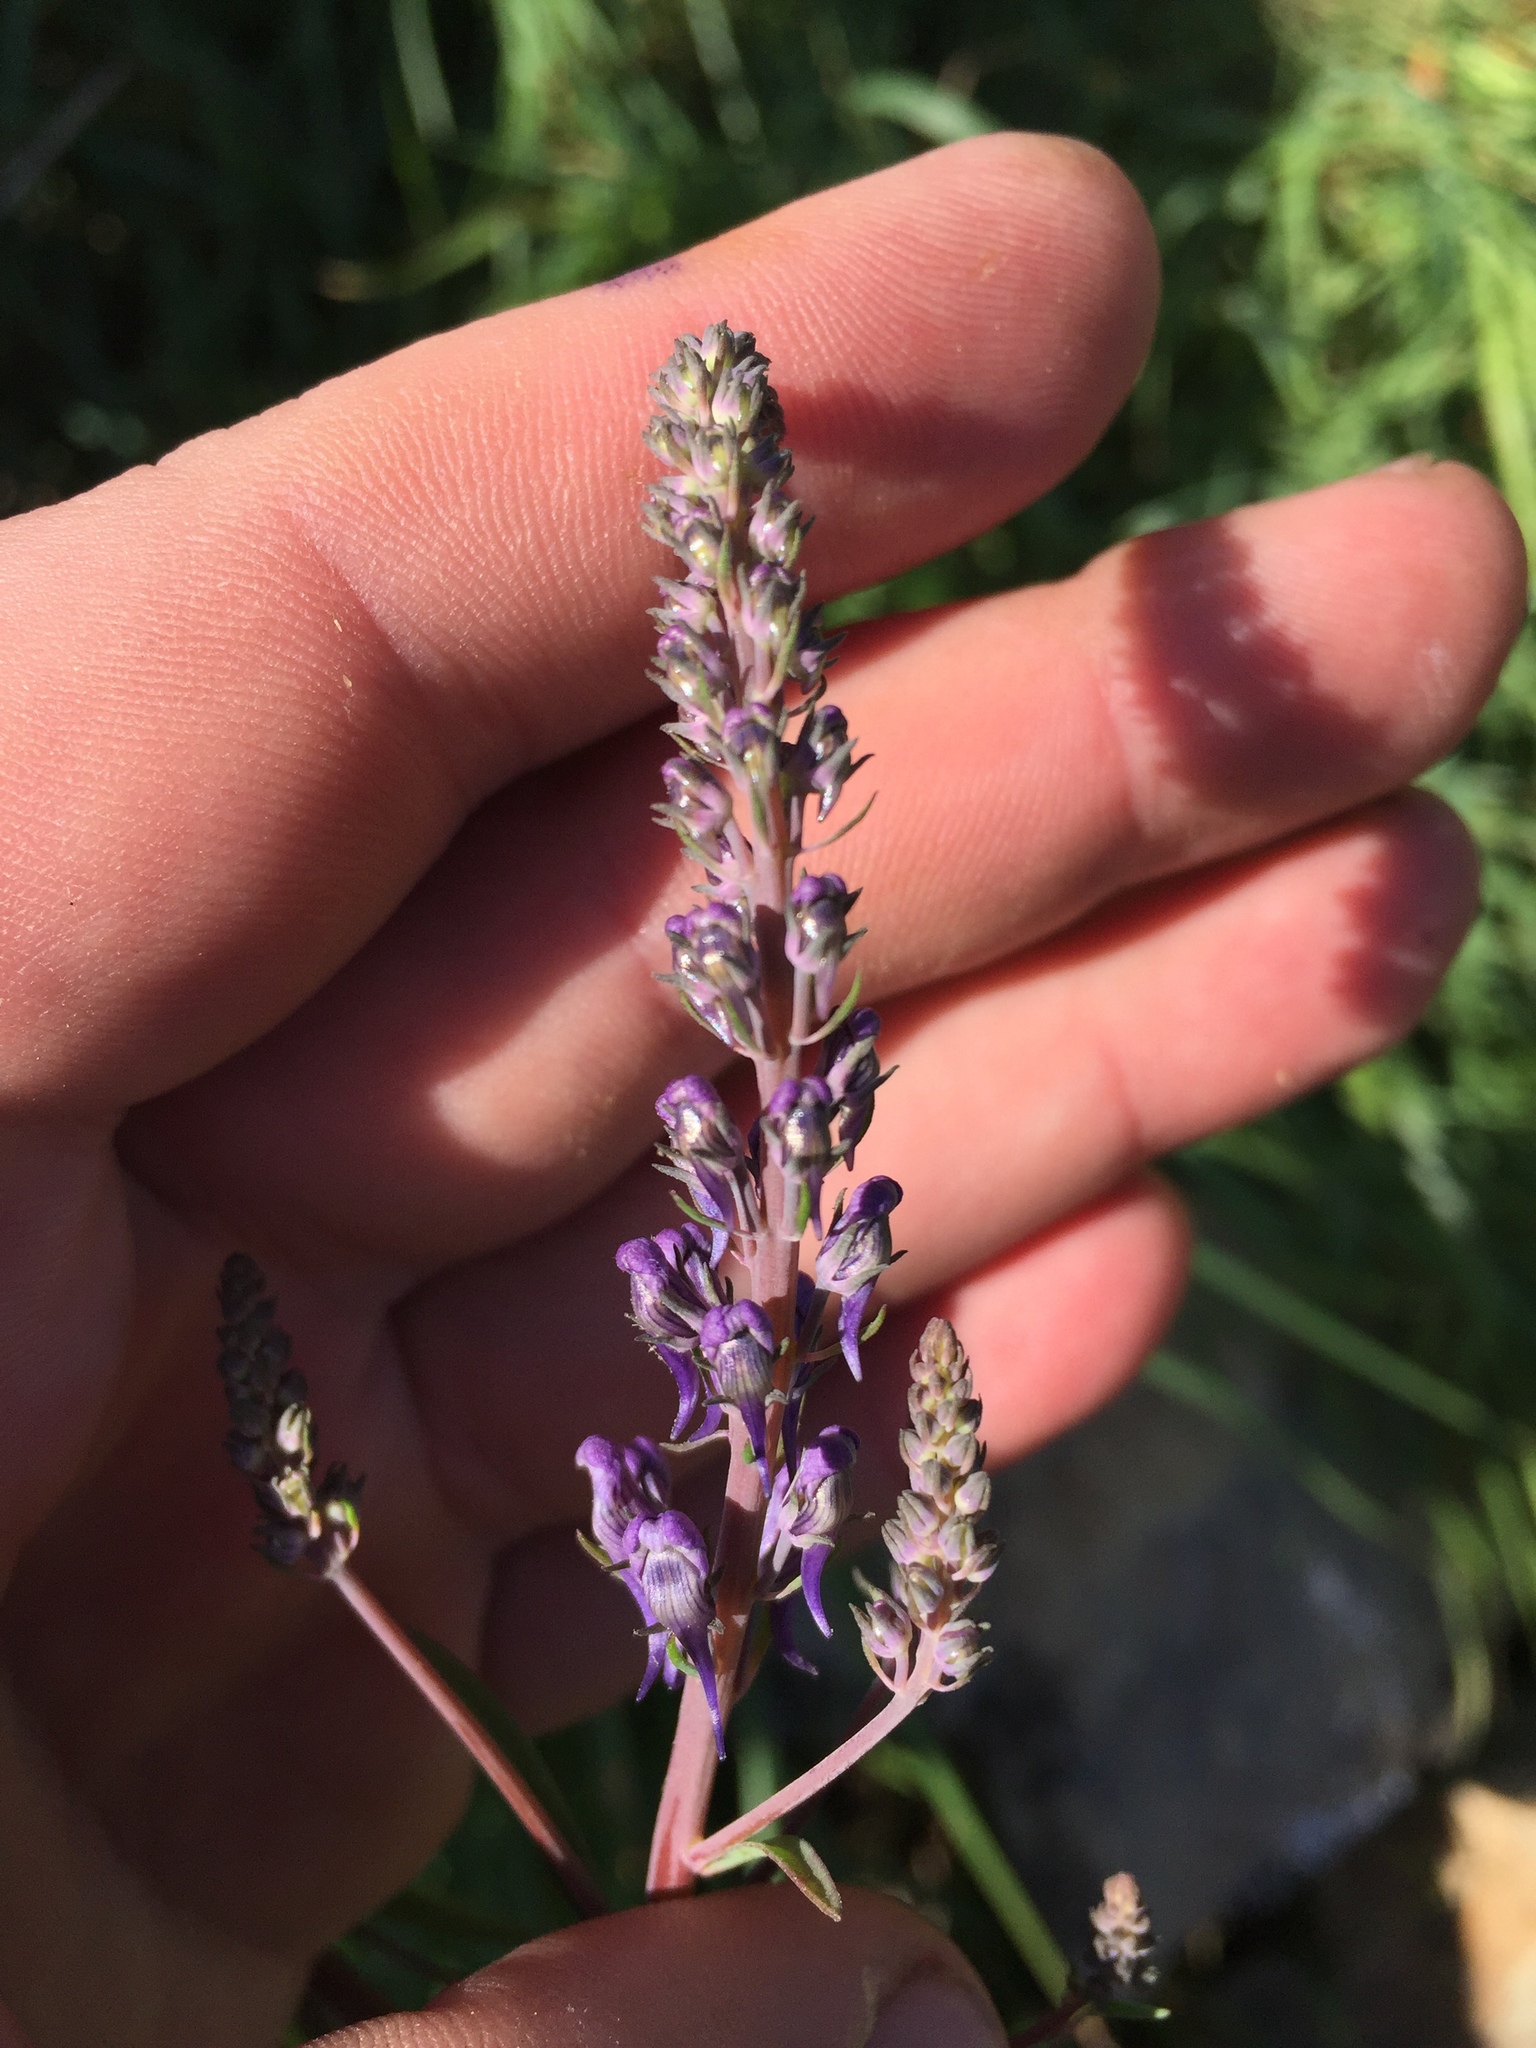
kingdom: Plantae
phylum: Tracheophyta
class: Magnoliopsida
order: Lamiales
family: Plantaginaceae
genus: Linaria
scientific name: Linaria purpurea
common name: Purple toadflax
